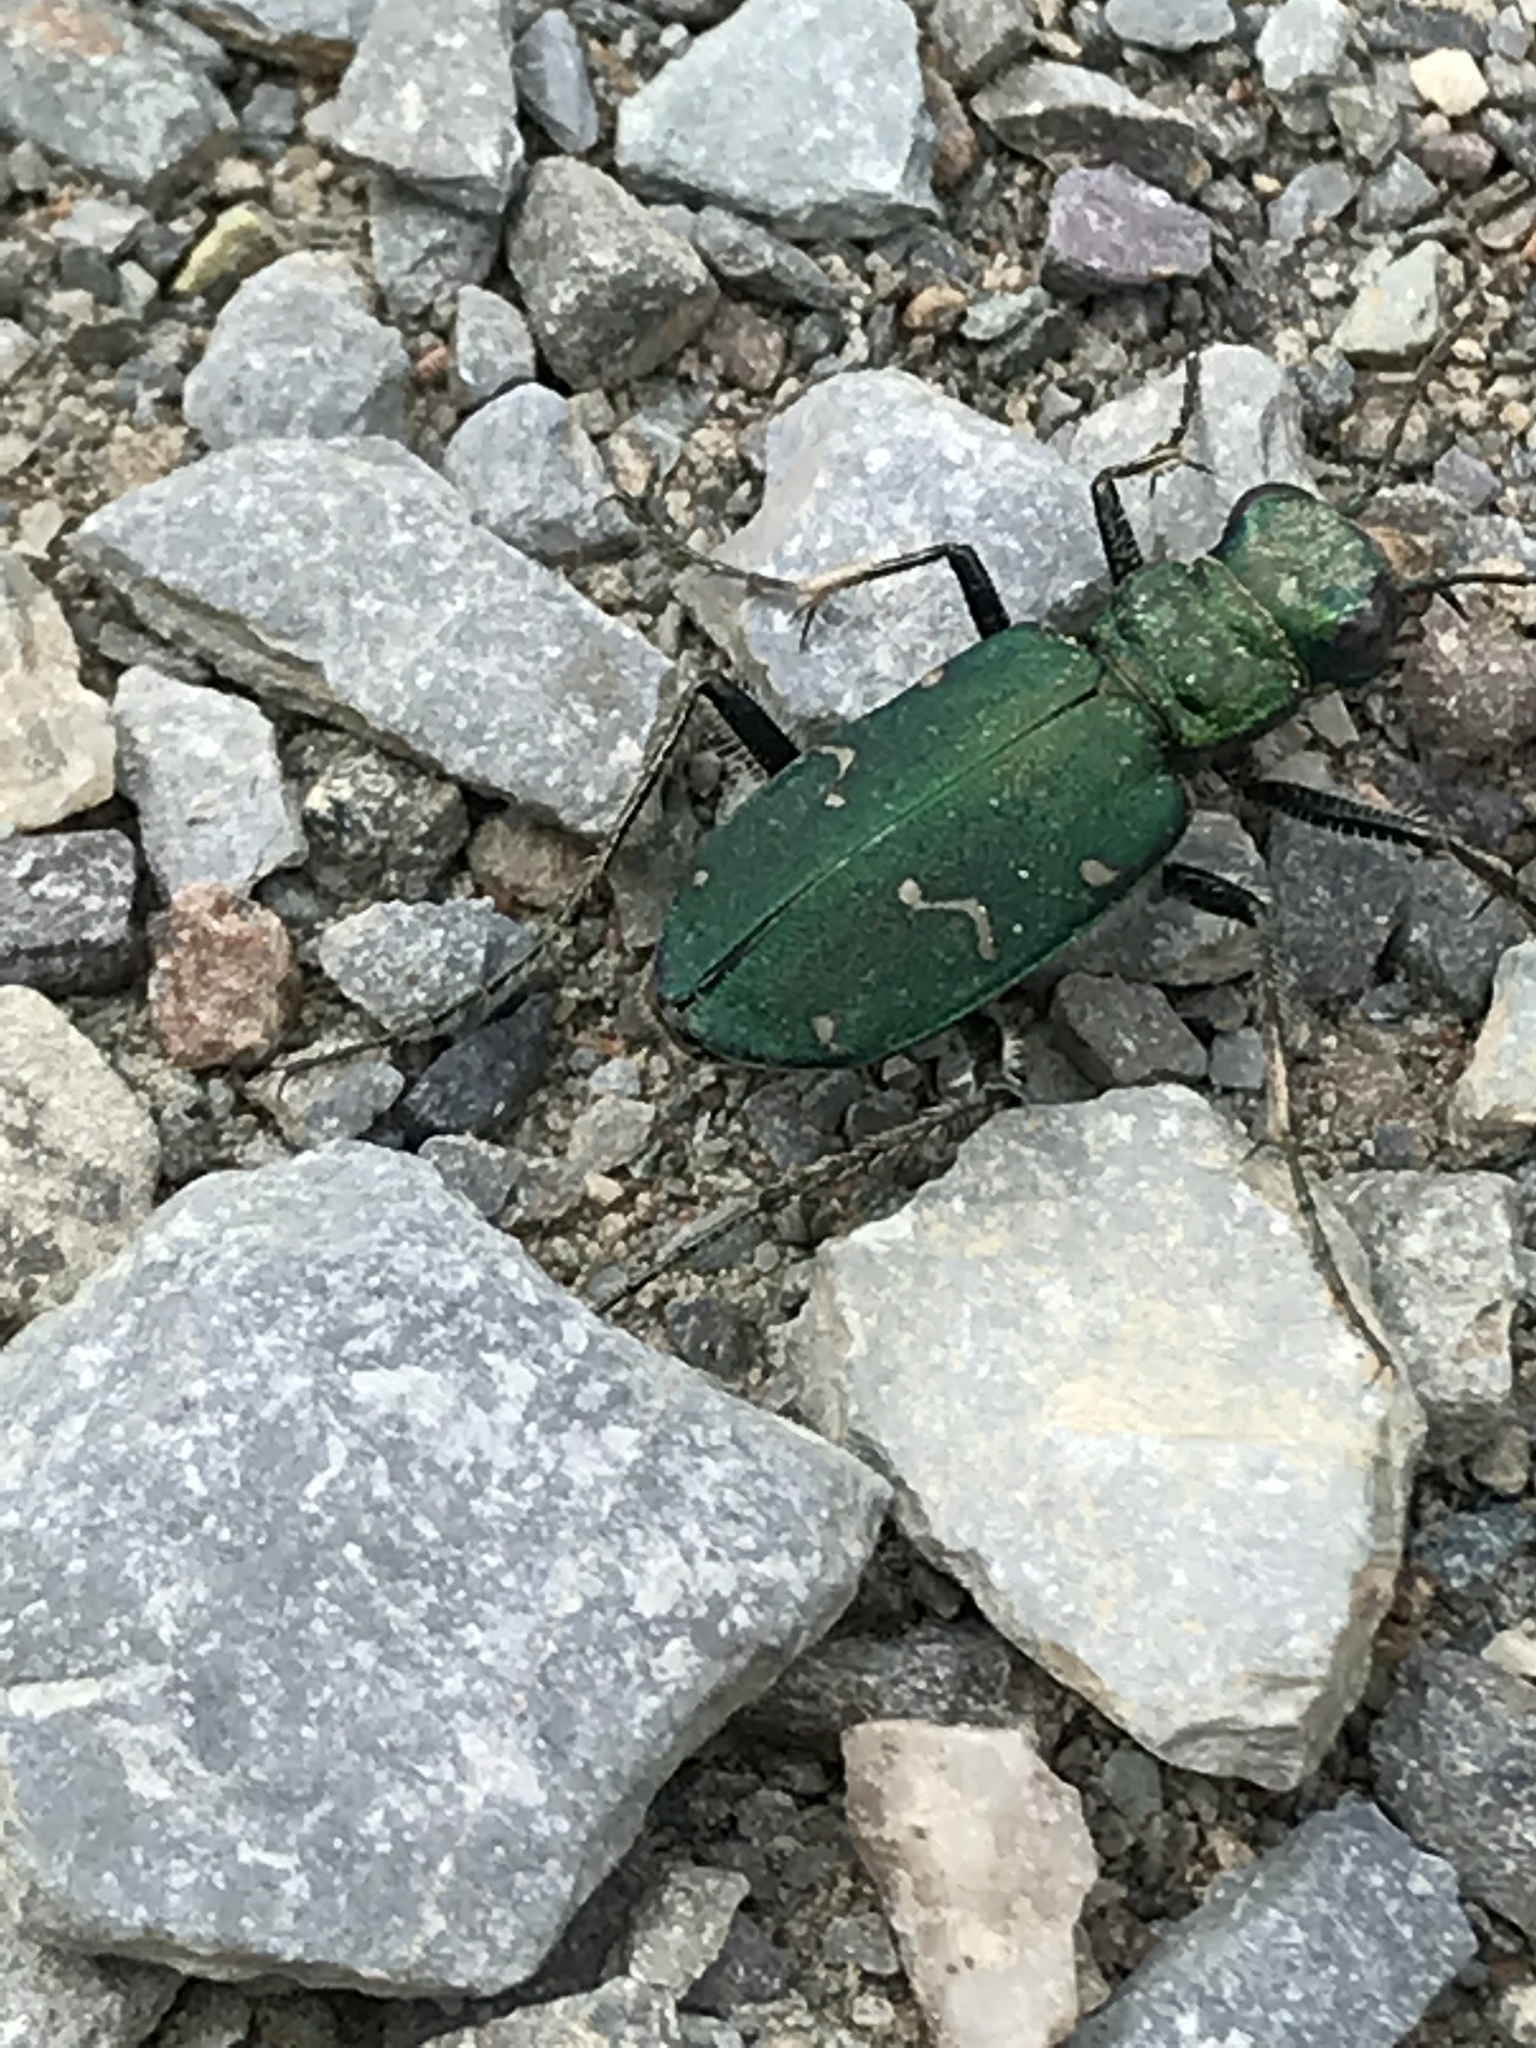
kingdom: Animalia
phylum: Arthropoda
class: Insecta
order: Coleoptera
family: Carabidae
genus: Cicindela
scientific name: Cicindela longilabris
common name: Boreal long-lipped tiger beetle
